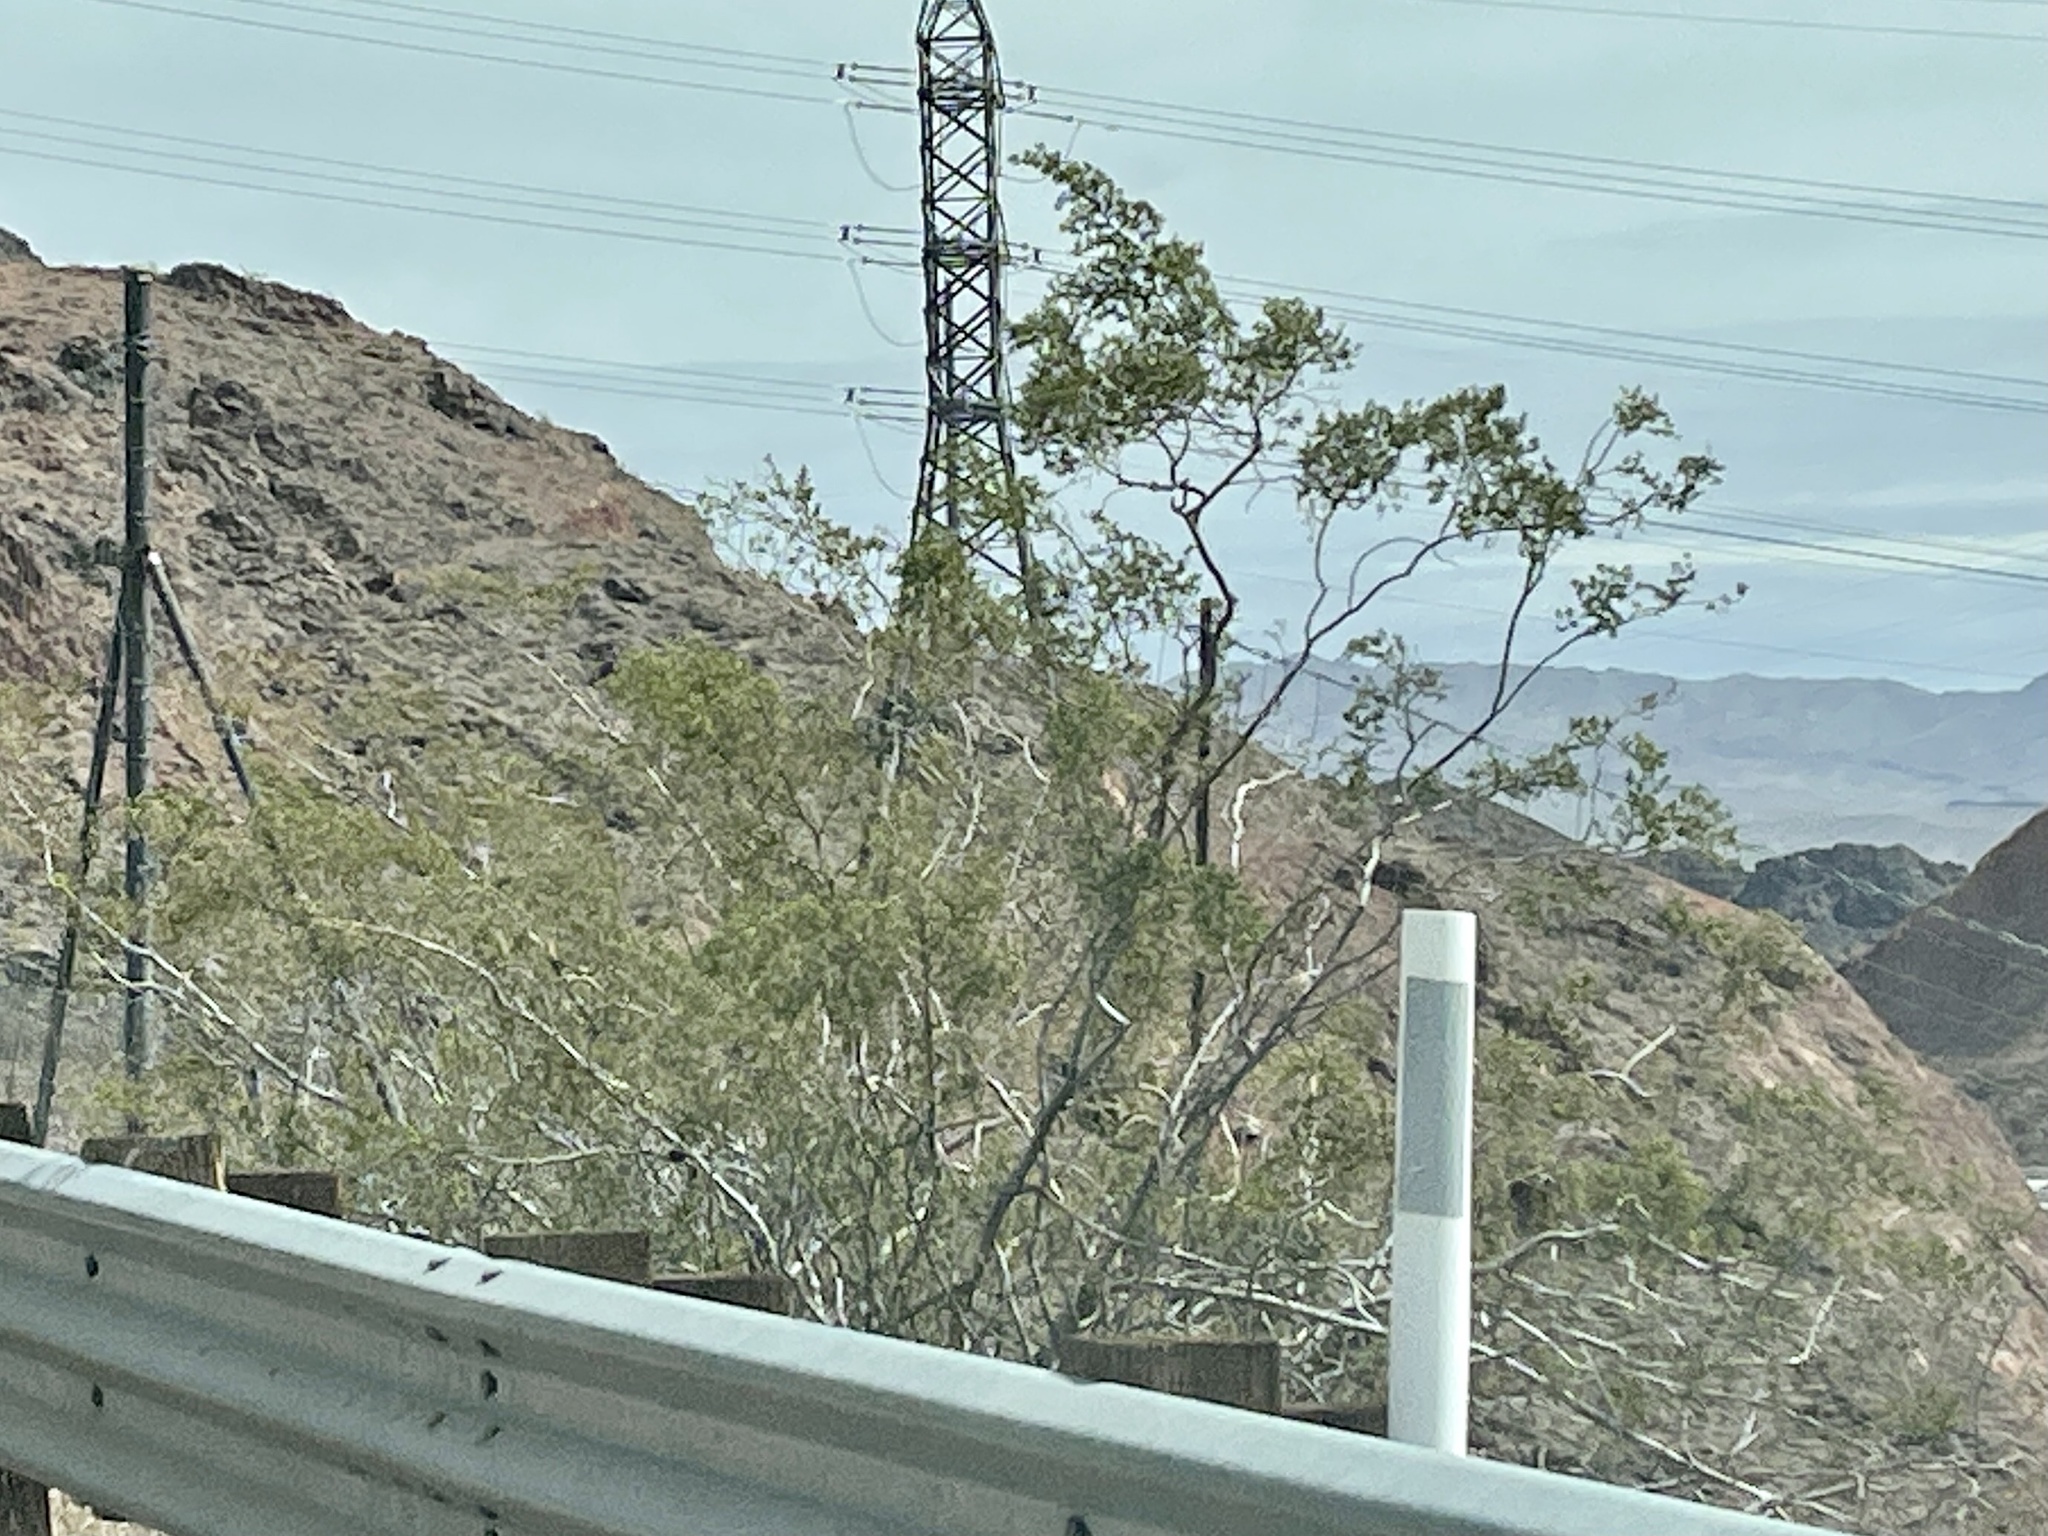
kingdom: Plantae
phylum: Tracheophyta
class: Magnoliopsida
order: Zygophyllales
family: Zygophyllaceae
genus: Larrea
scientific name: Larrea tridentata
